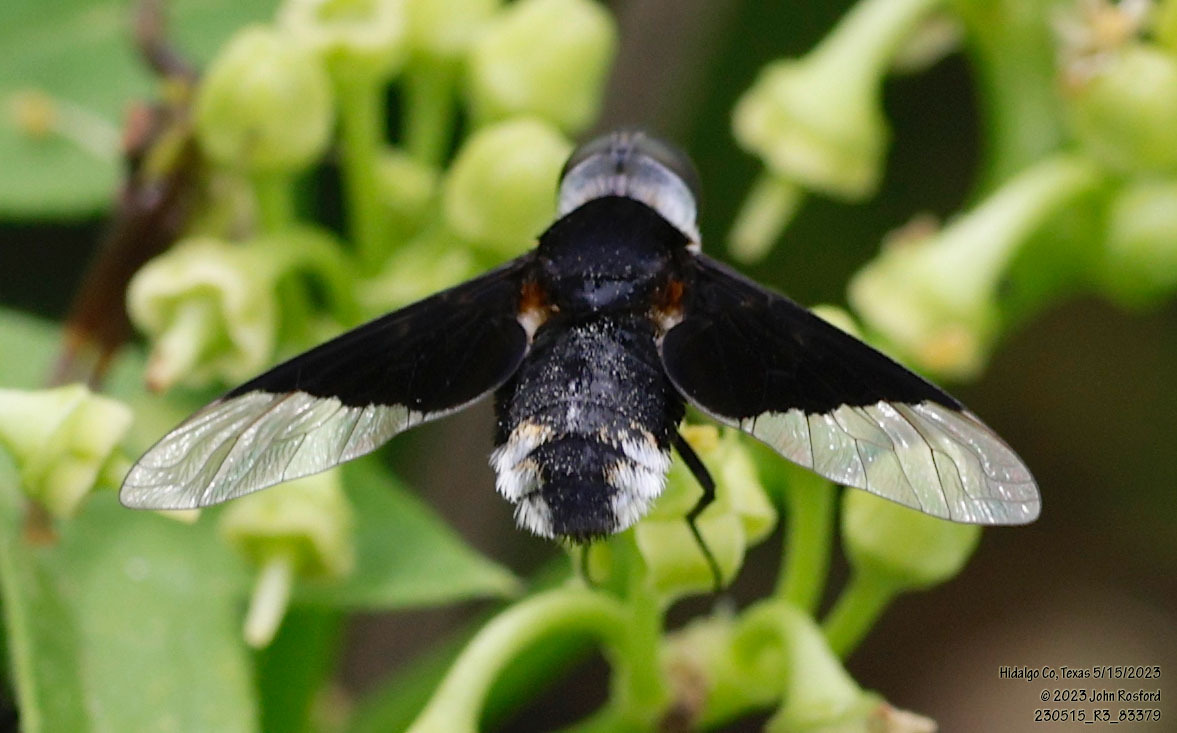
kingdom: Animalia
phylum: Arthropoda
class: Insecta
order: Diptera
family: Bombyliidae
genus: Ins
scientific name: Ins celeris
